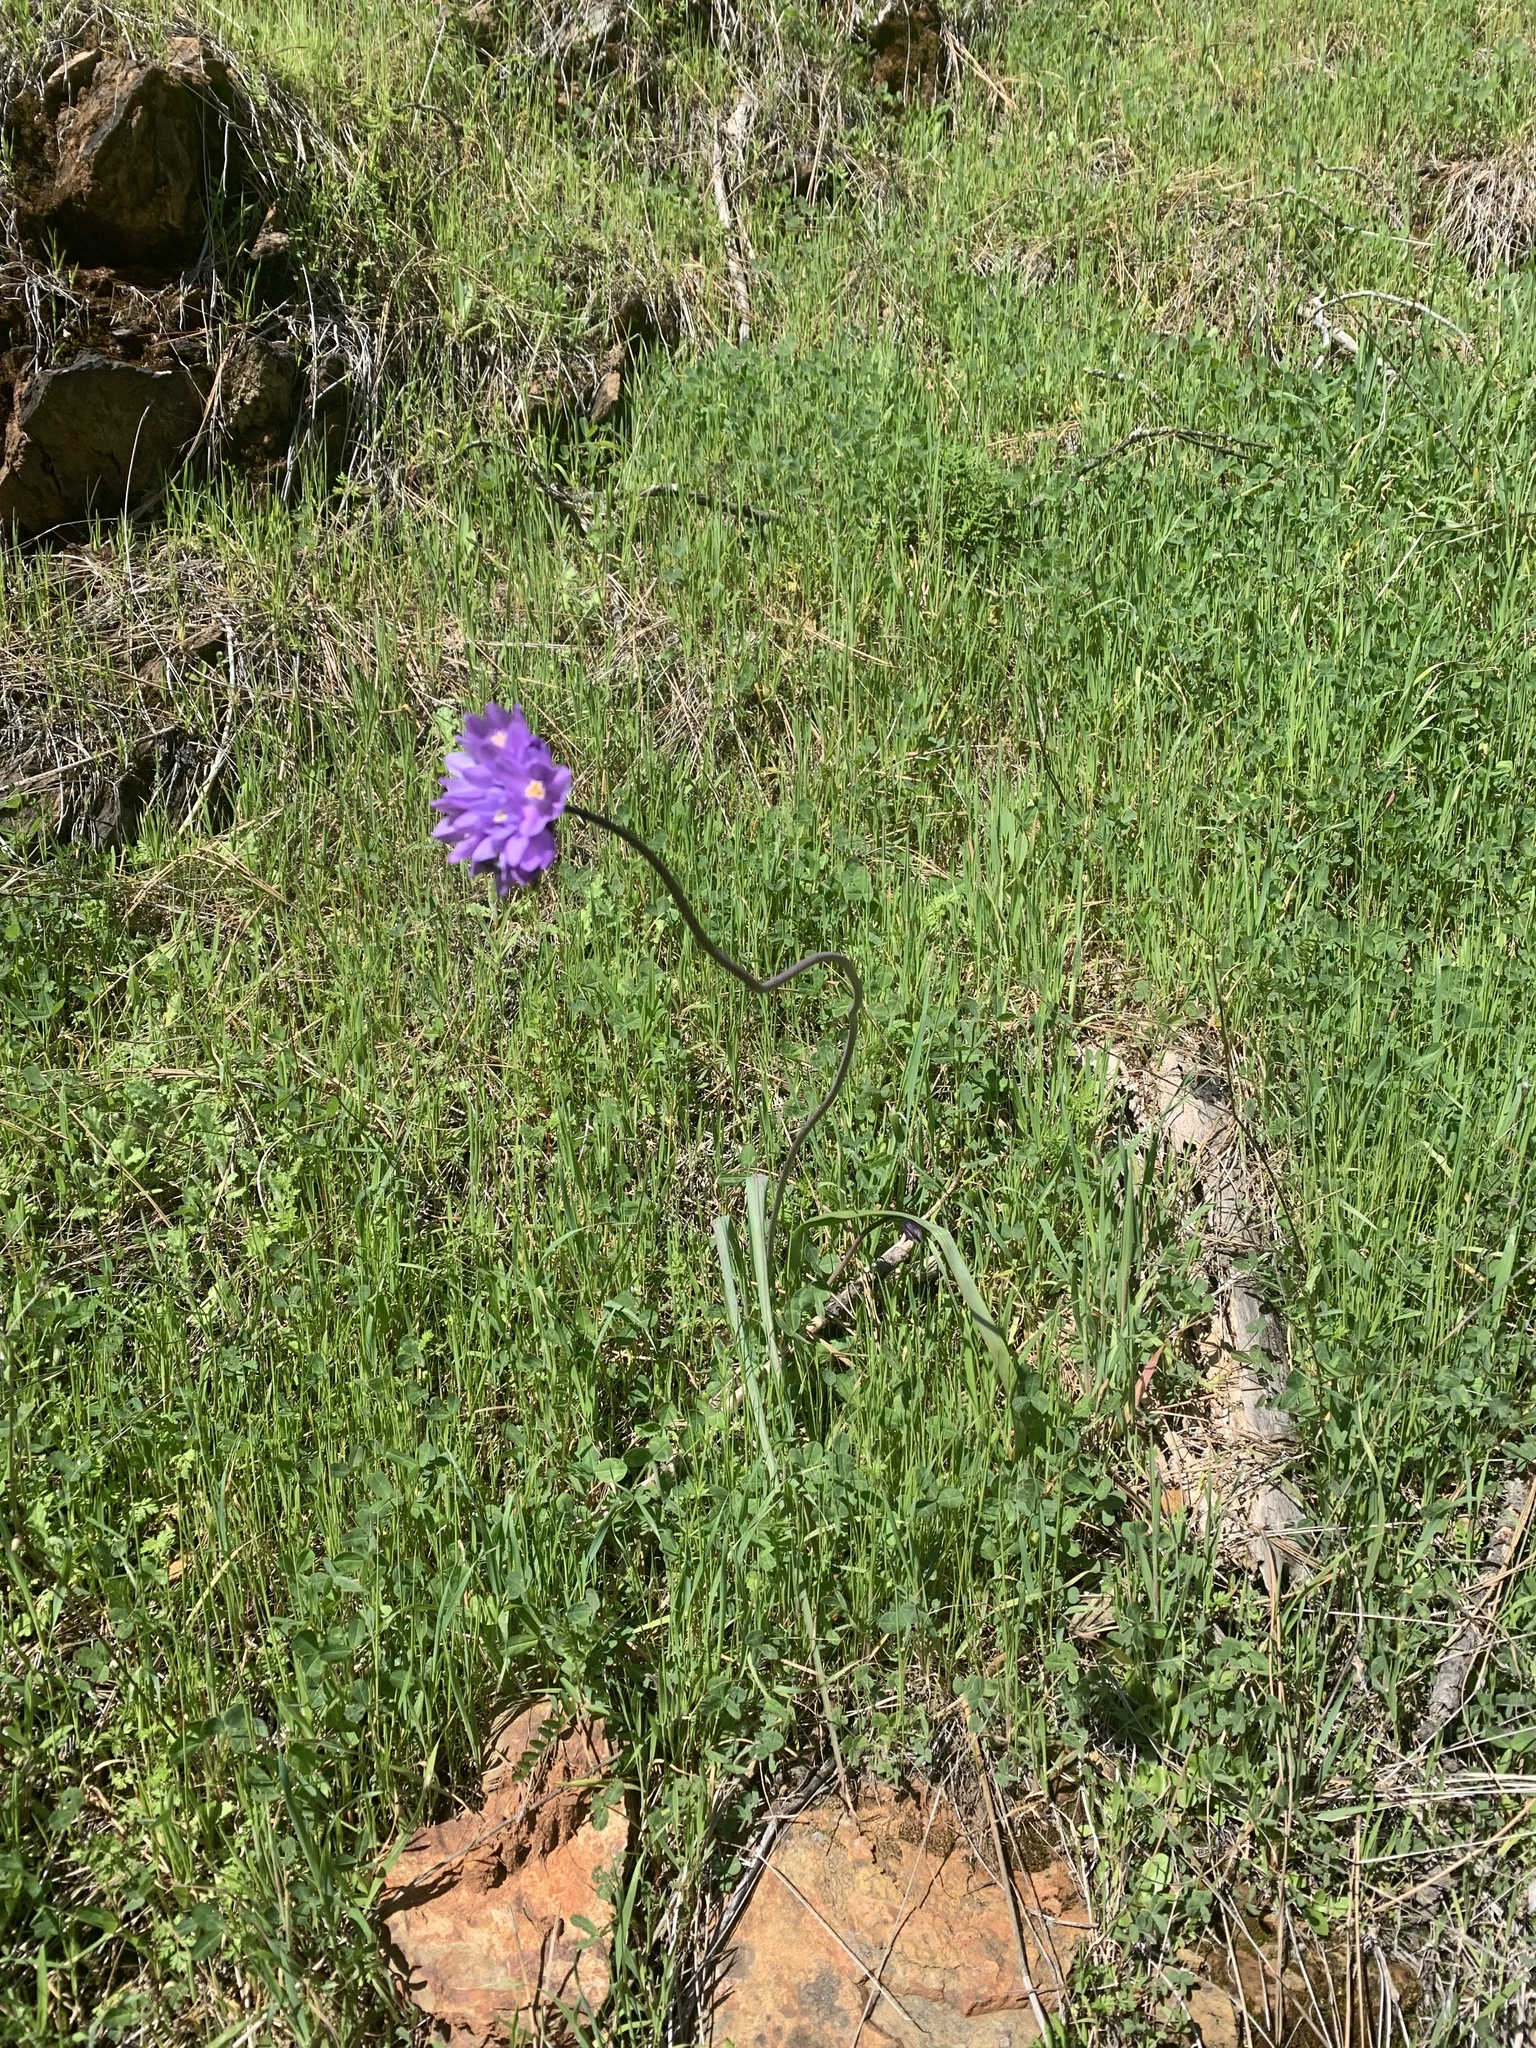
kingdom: Plantae
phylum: Tracheophyta
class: Liliopsida
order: Asparagales
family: Asparagaceae
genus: Dipterostemon
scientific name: Dipterostemon capitatus
